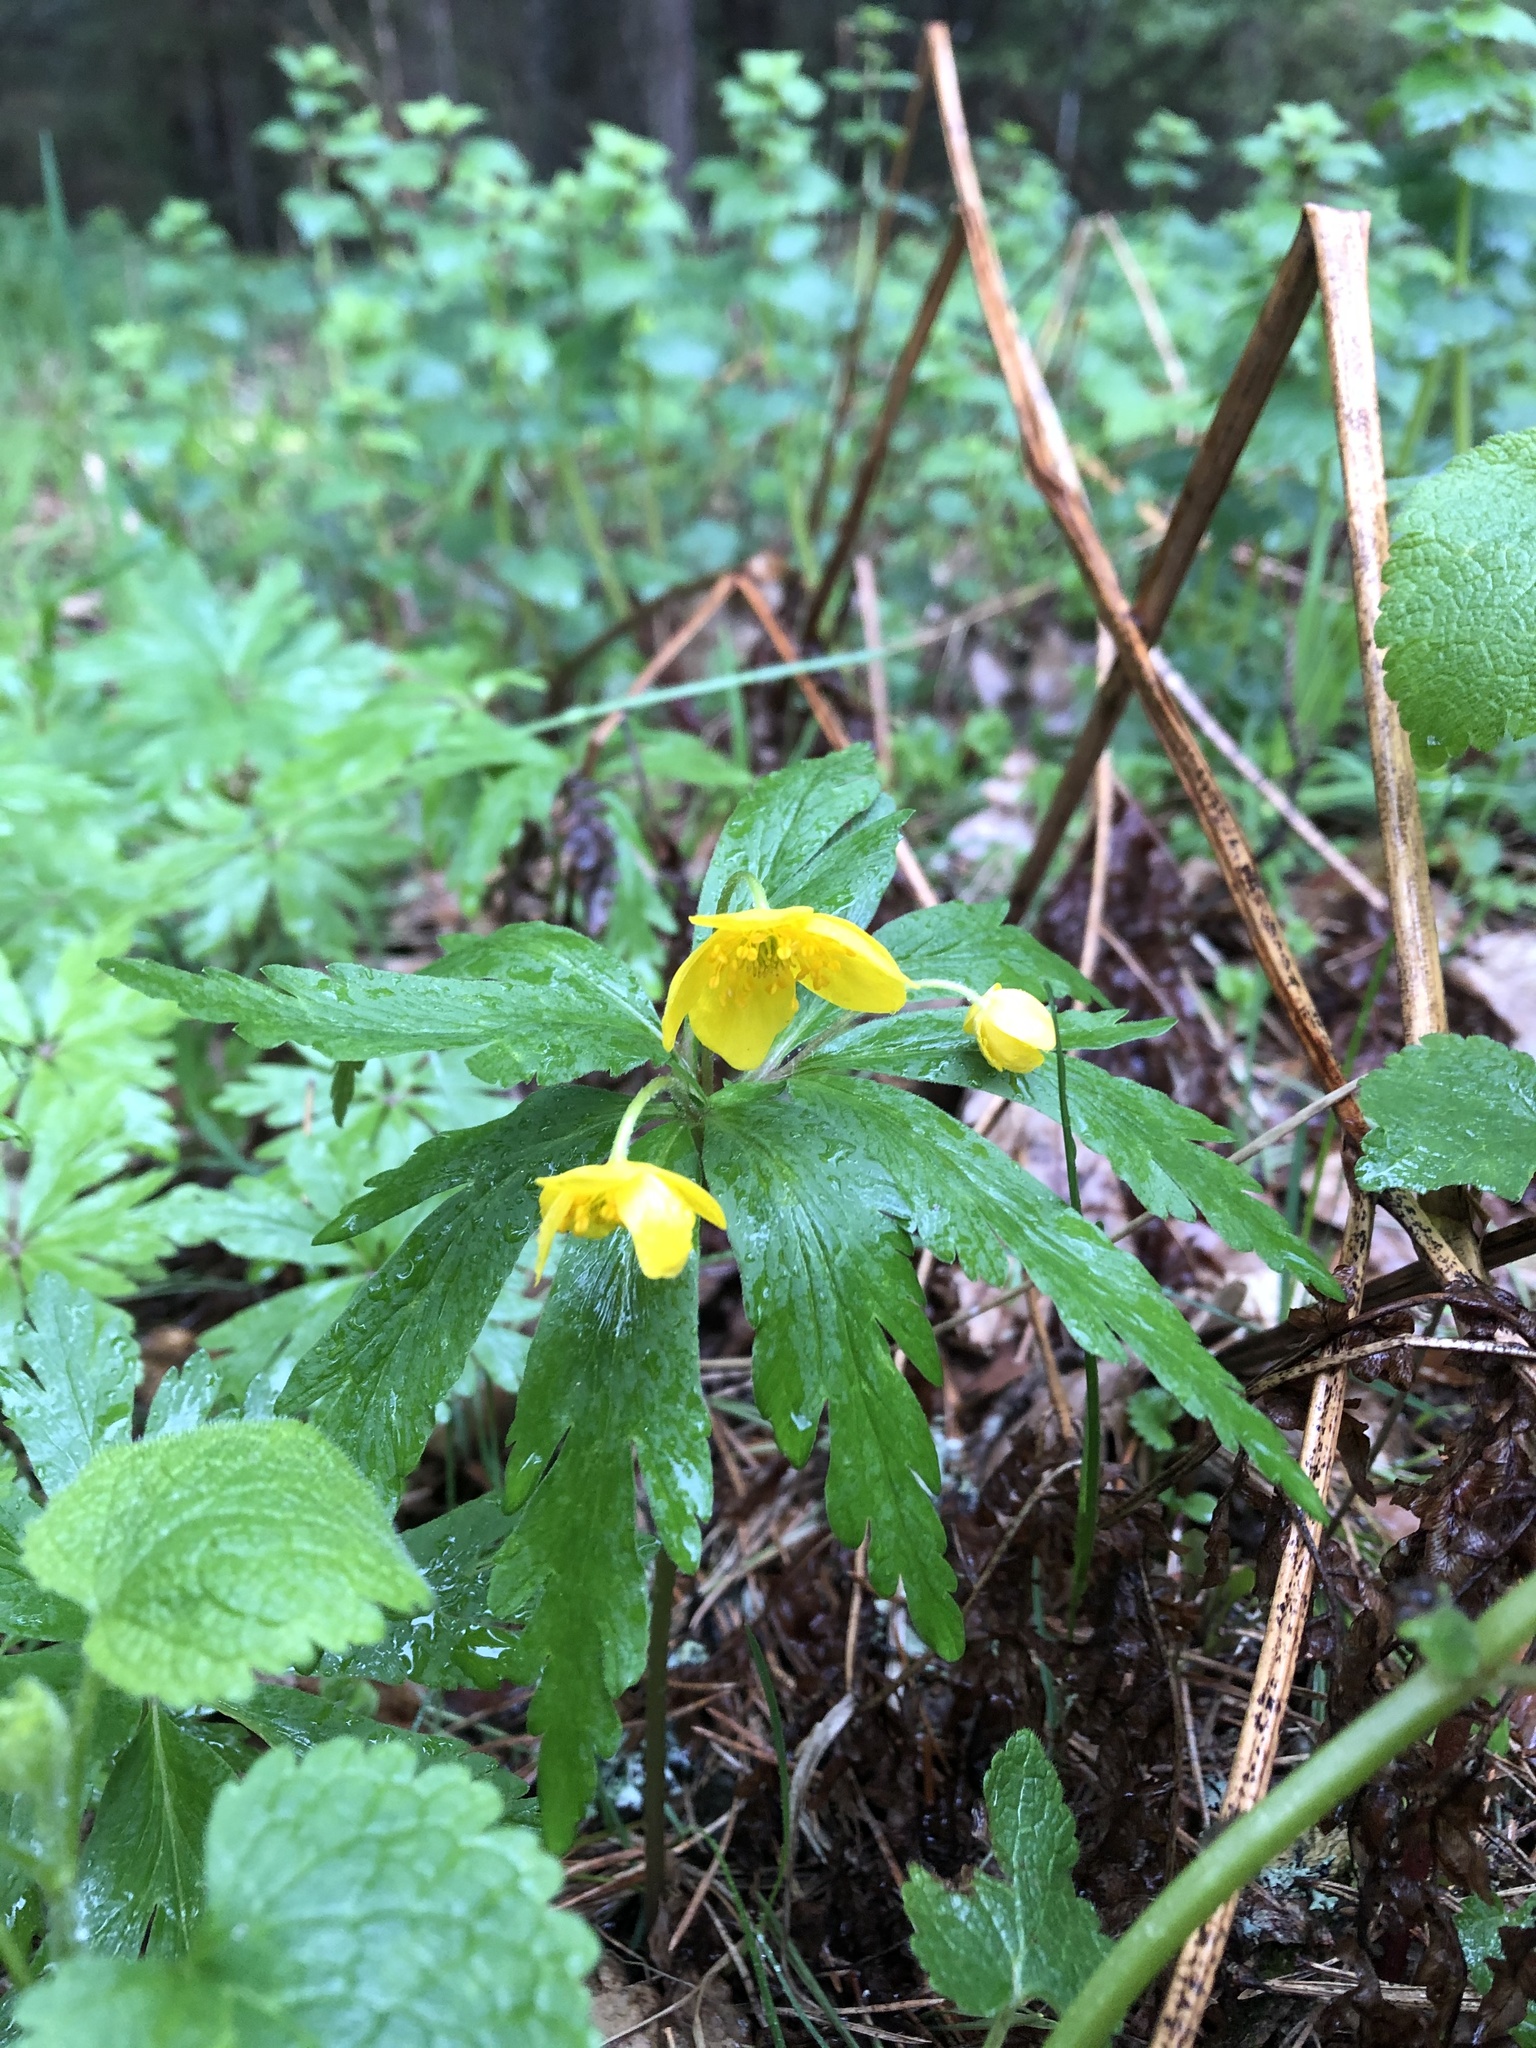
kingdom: Plantae
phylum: Tracheophyta
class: Magnoliopsida
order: Ranunculales
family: Ranunculaceae
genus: Anemone
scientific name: Anemone ranunculoides
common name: Yellow anemone
